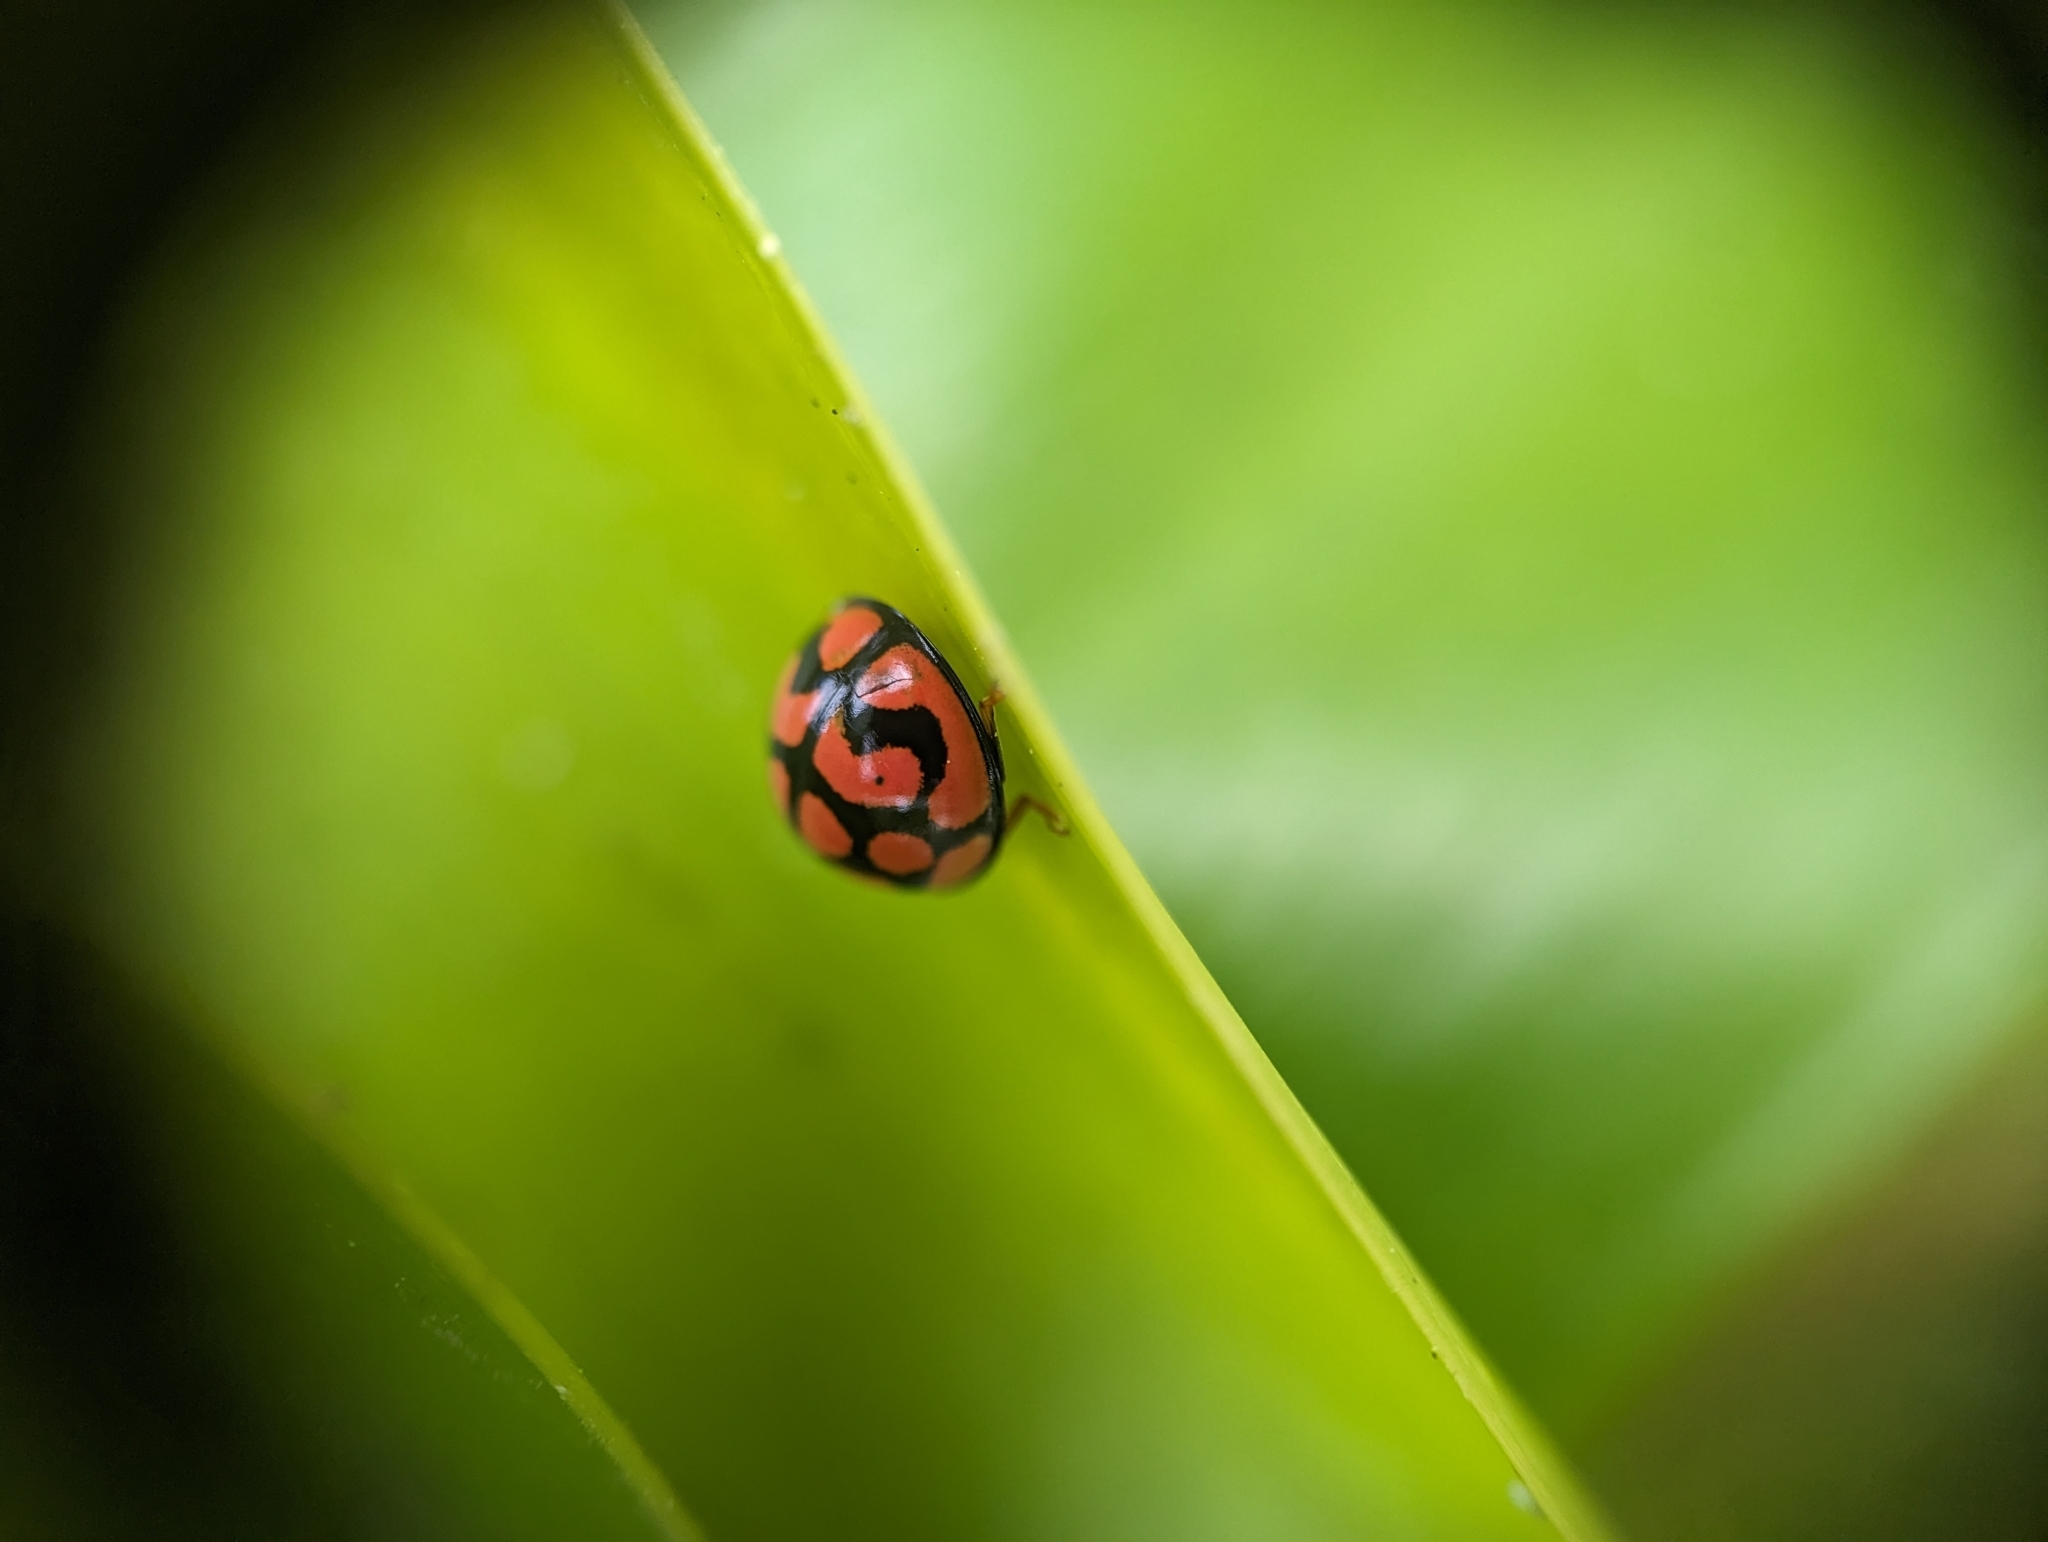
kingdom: Animalia
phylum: Arthropoda
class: Insecta
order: Coleoptera
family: Coccinellidae
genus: Cheilomenes
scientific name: Cheilomenes lunata
